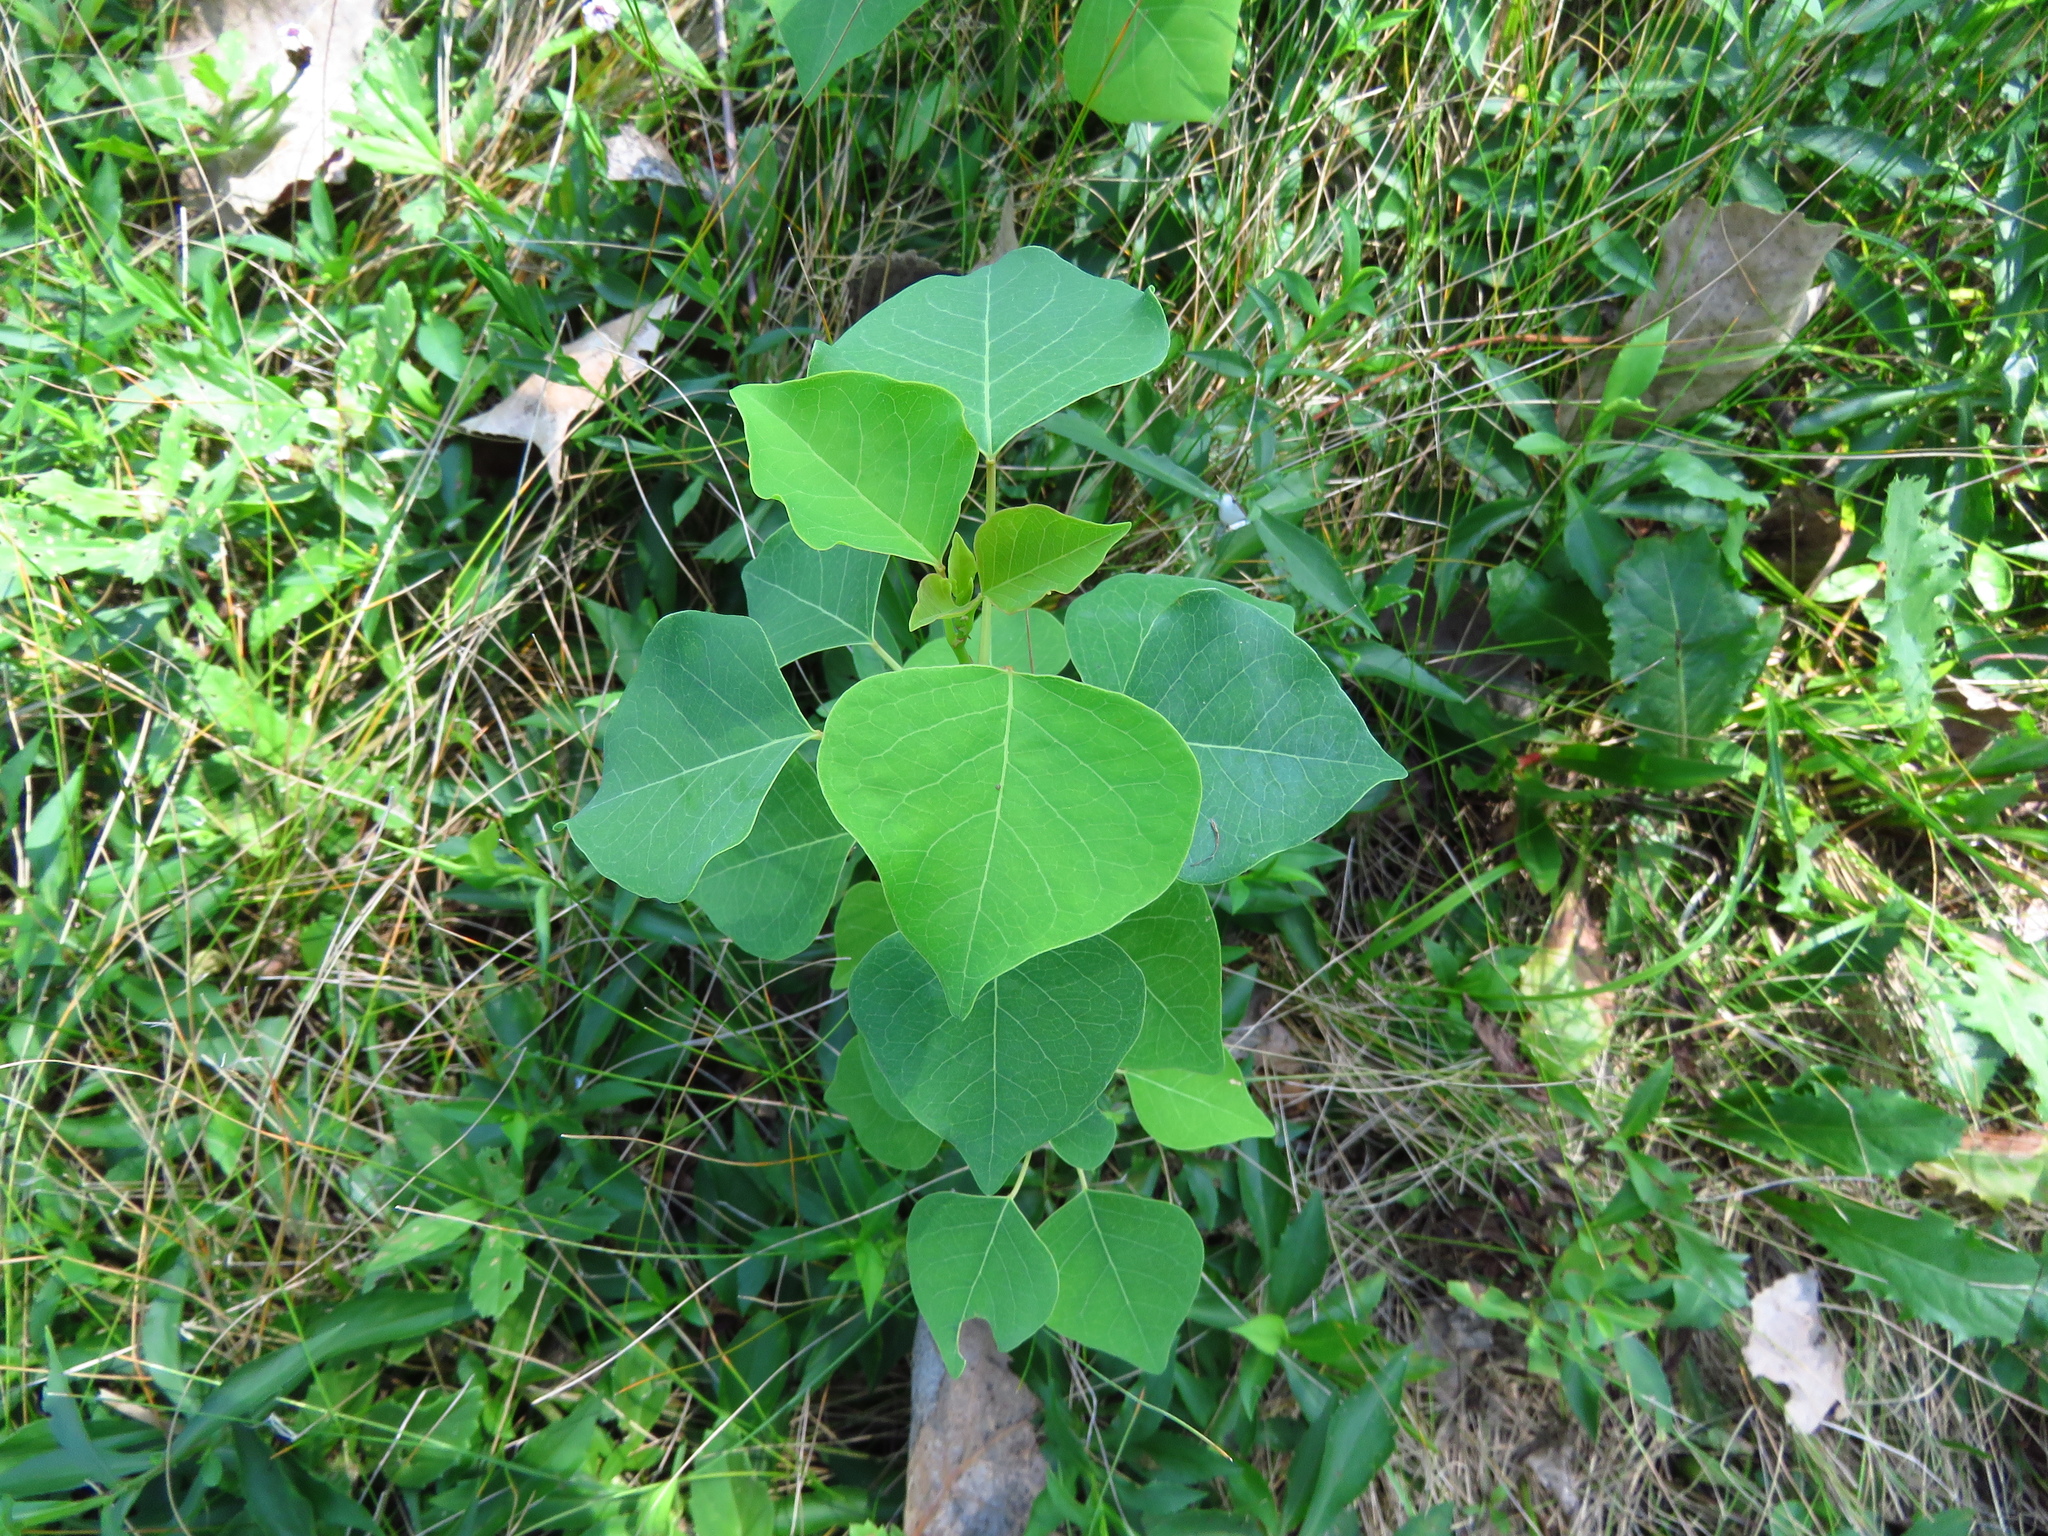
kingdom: Plantae
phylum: Tracheophyta
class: Magnoliopsida
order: Malpighiales
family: Euphorbiaceae
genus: Triadica
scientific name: Triadica sebifera
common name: Chinese tallow
